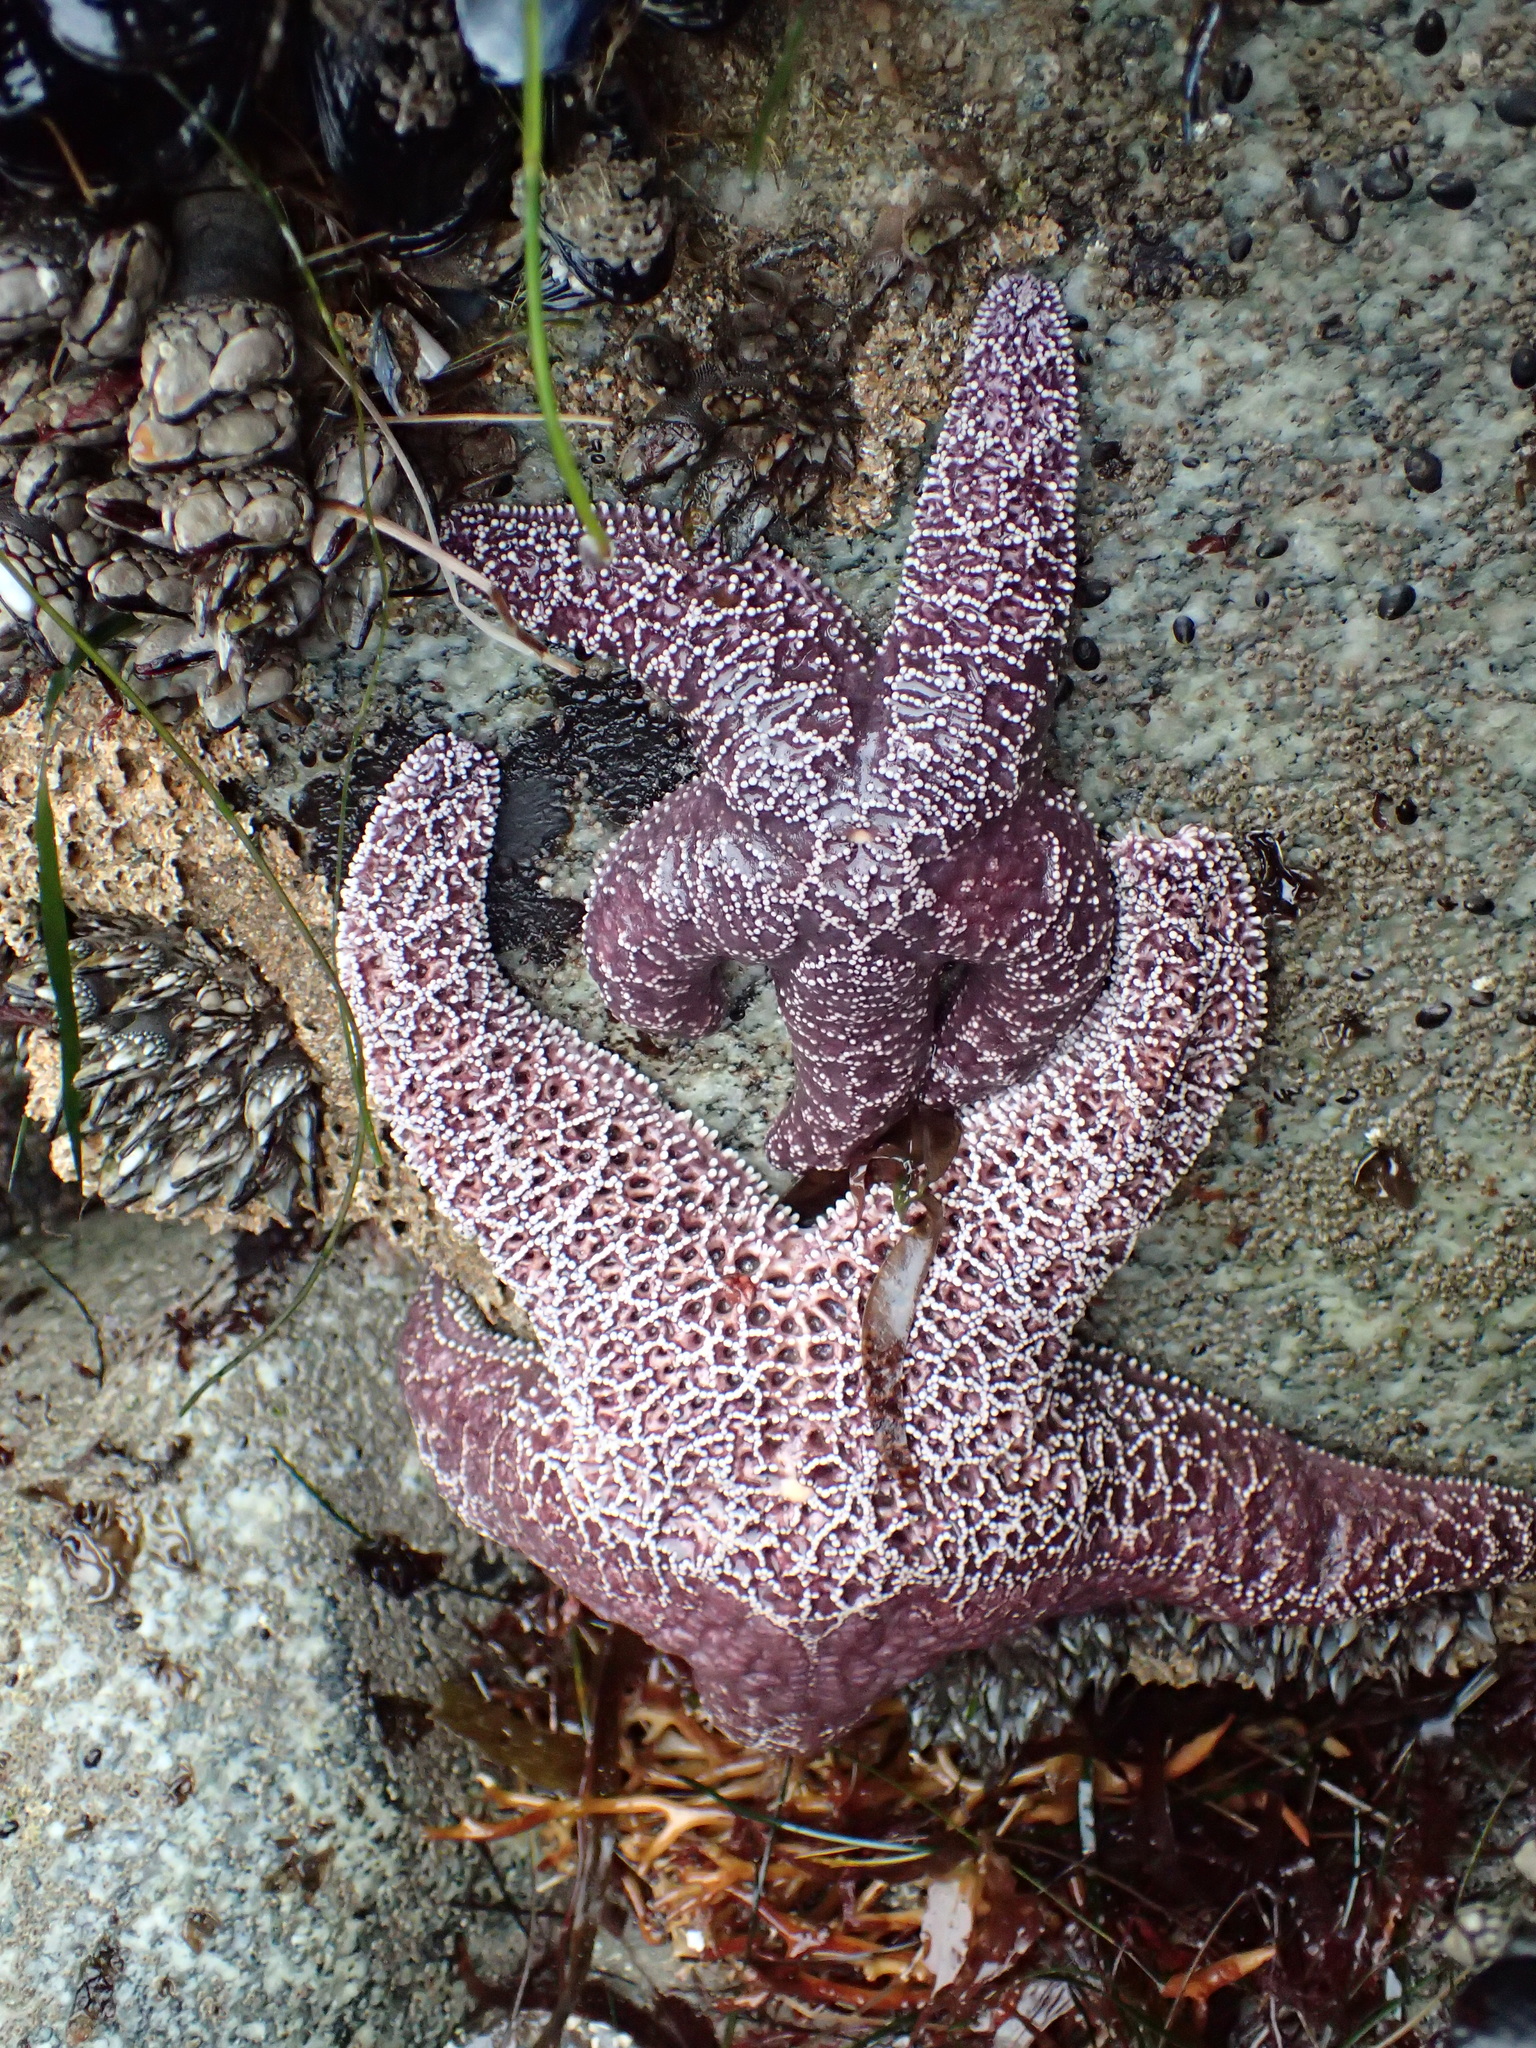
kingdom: Animalia
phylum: Echinodermata
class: Asteroidea
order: Forcipulatida
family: Asteriidae
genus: Pisaster
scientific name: Pisaster ochraceus
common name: Ochre stars
